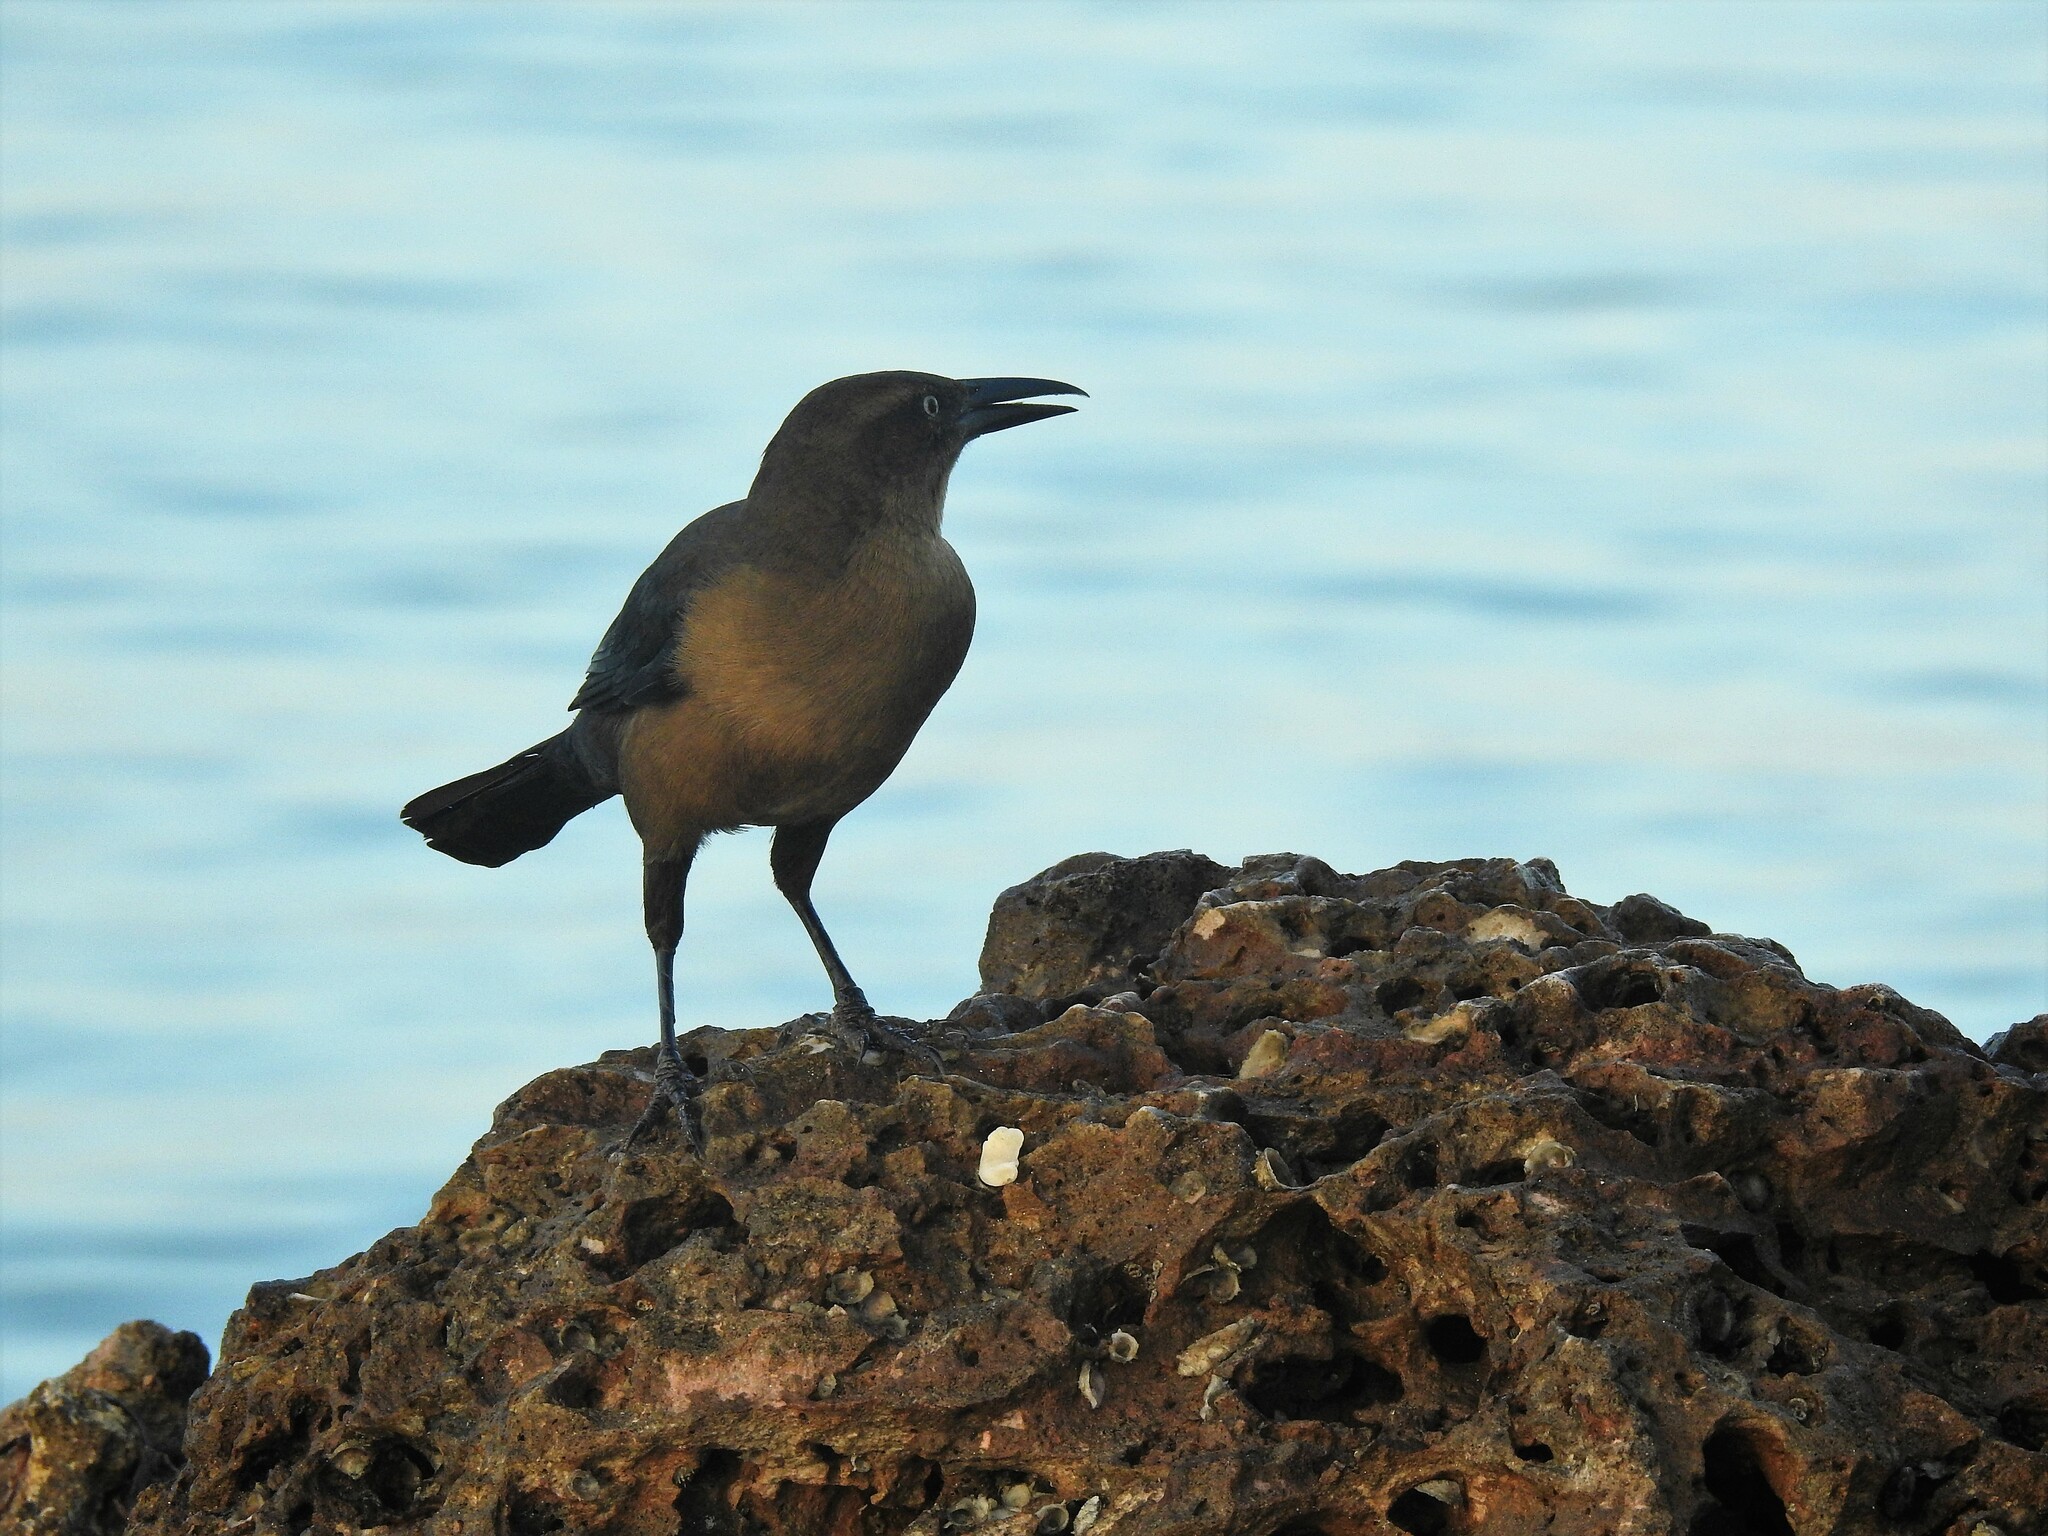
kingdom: Animalia
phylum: Chordata
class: Aves
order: Passeriformes
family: Icteridae
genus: Quiscalus
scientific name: Quiscalus mexicanus
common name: Great-tailed grackle
